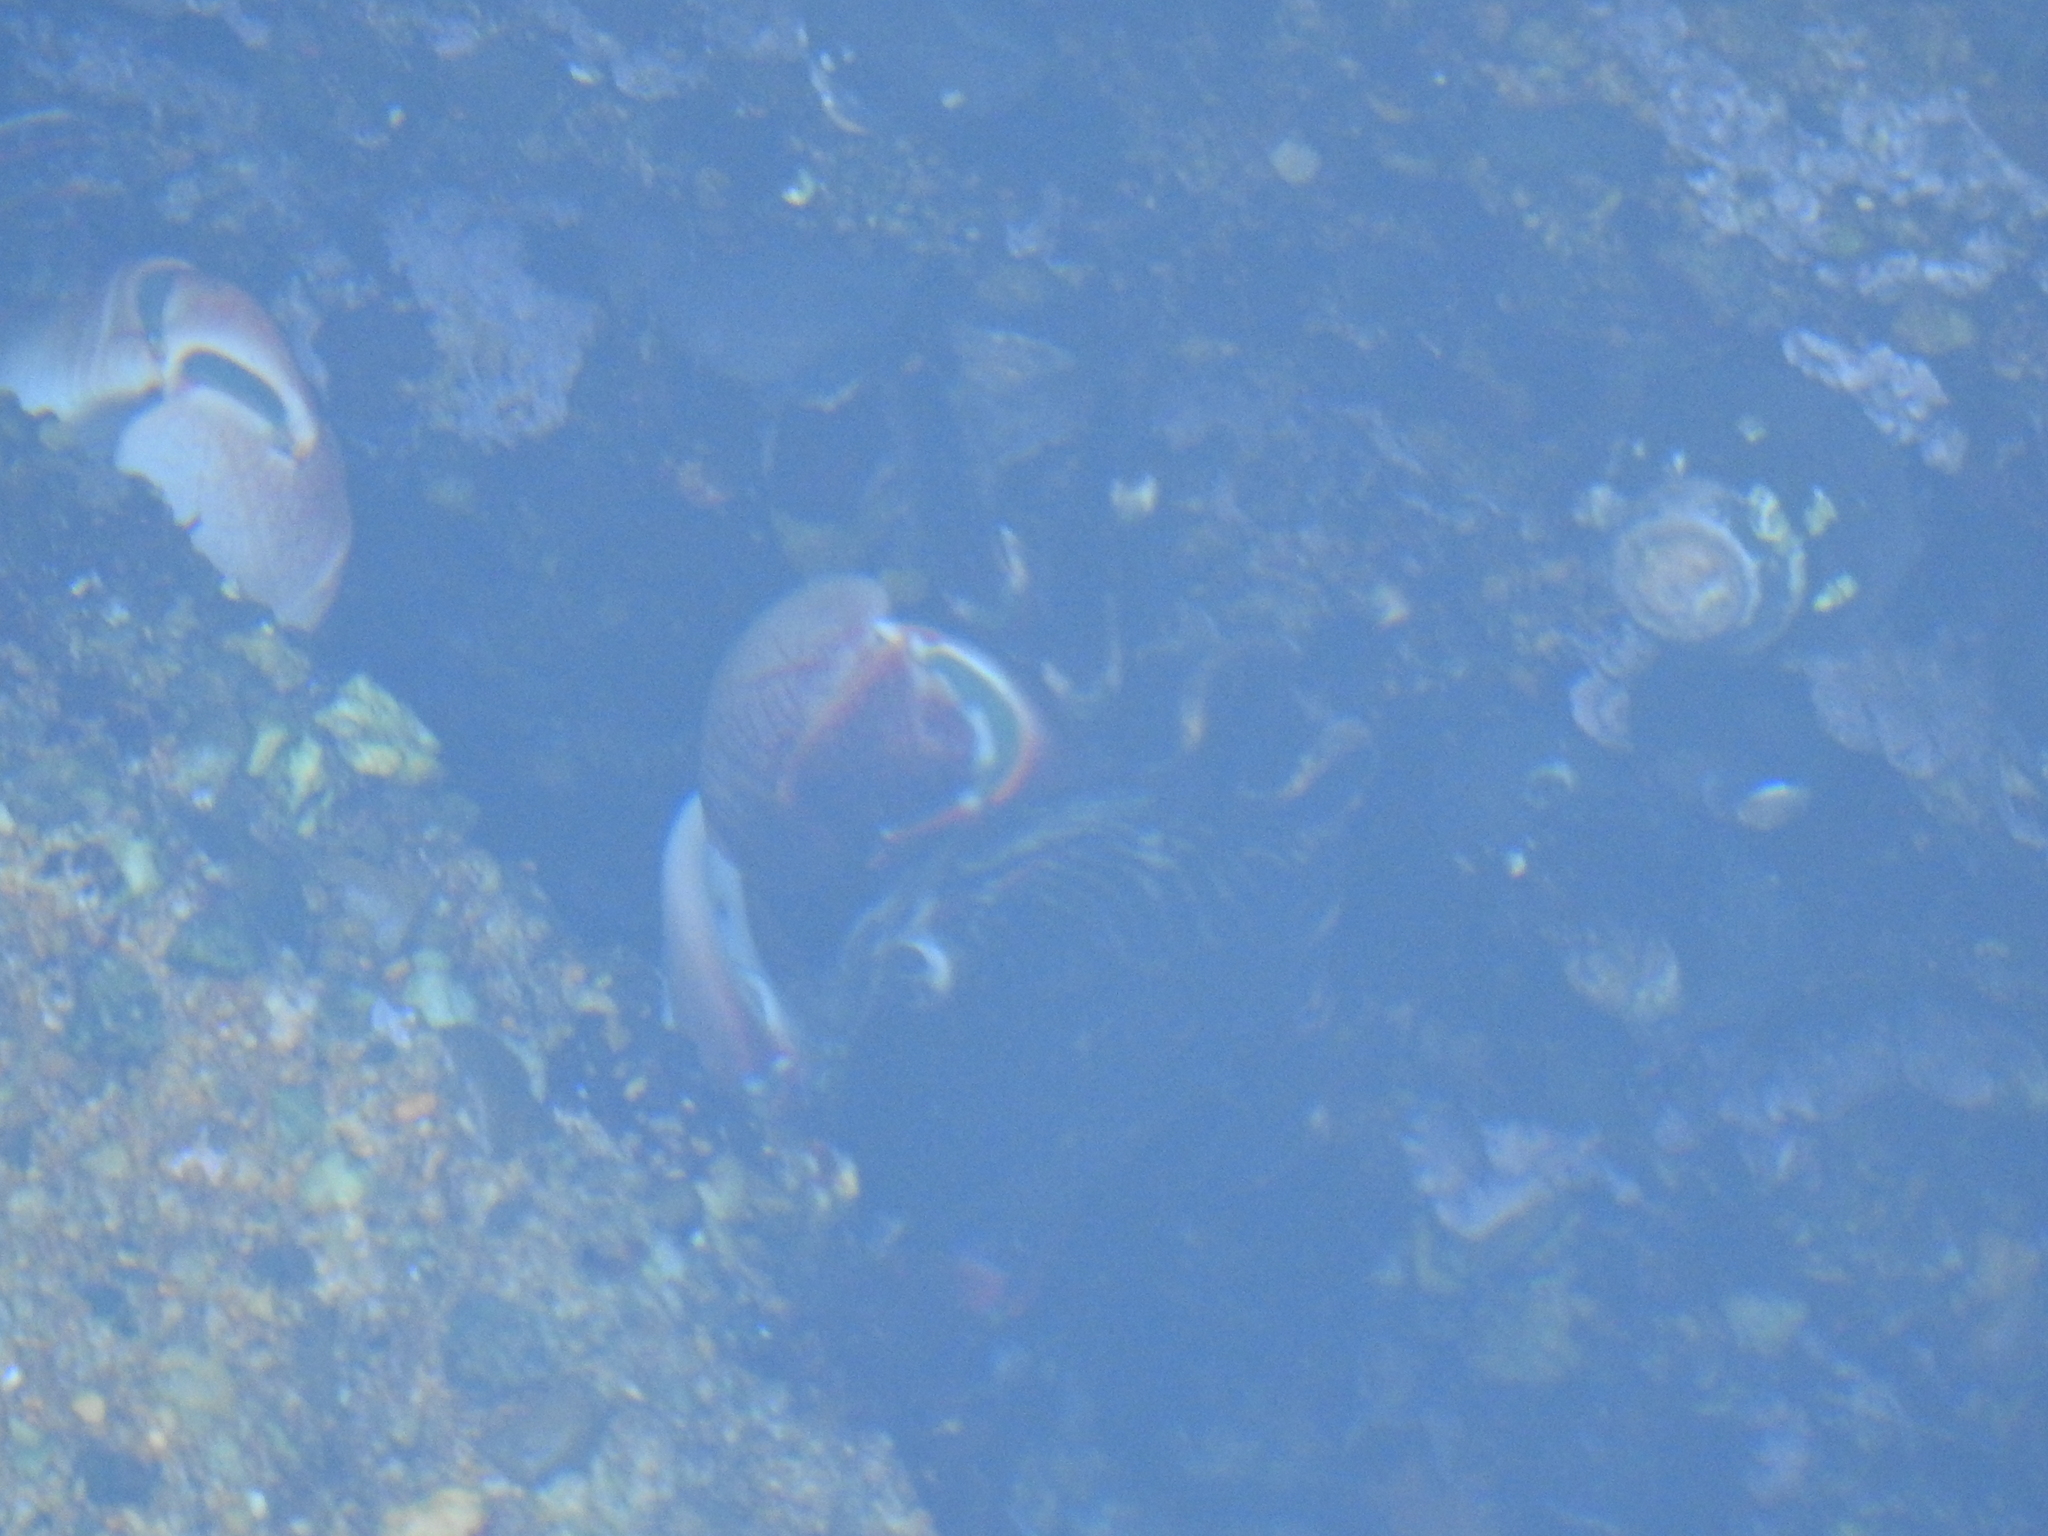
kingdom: Animalia
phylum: Arthropoda
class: Malacostraca
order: Decapoda
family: Grapsidae
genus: Pachygrapsus
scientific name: Pachygrapsus crassipes
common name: Striped shore crab
